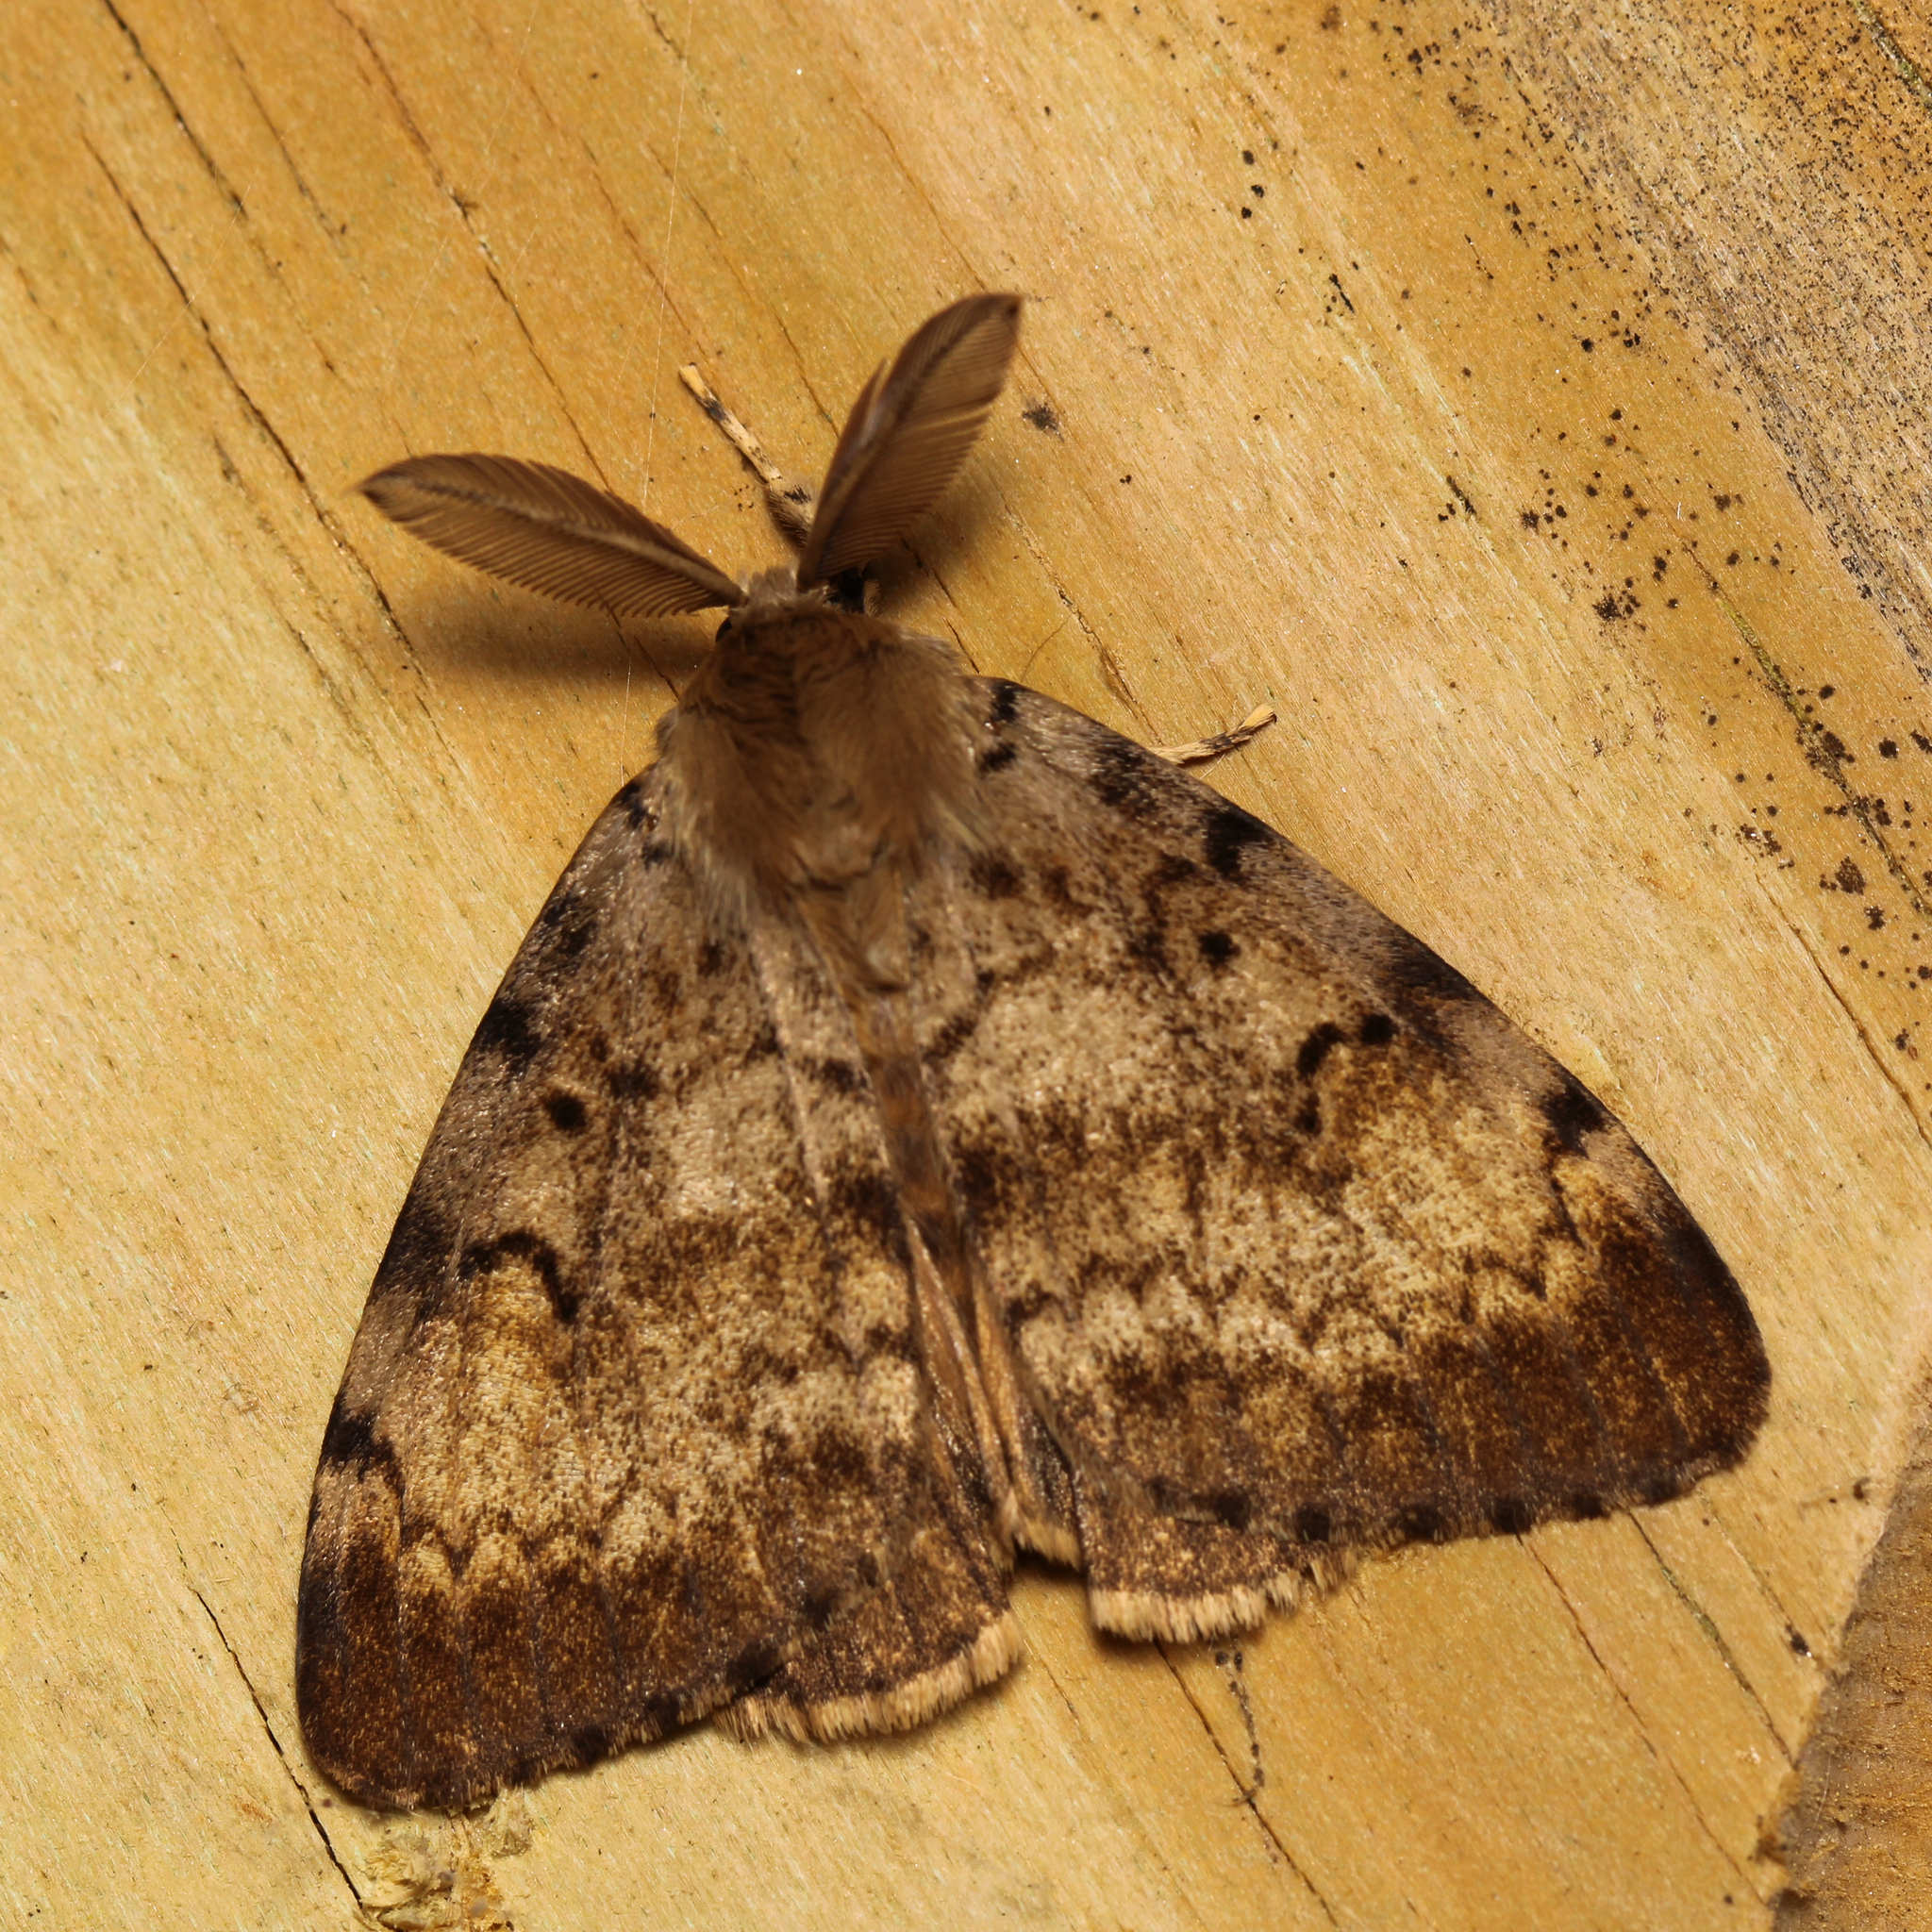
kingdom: Animalia
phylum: Arthropoda
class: Insecta
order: Lepidoptera
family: Erebidae
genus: Lymantria
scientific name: Lymantria dispar
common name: Gypsy moth
